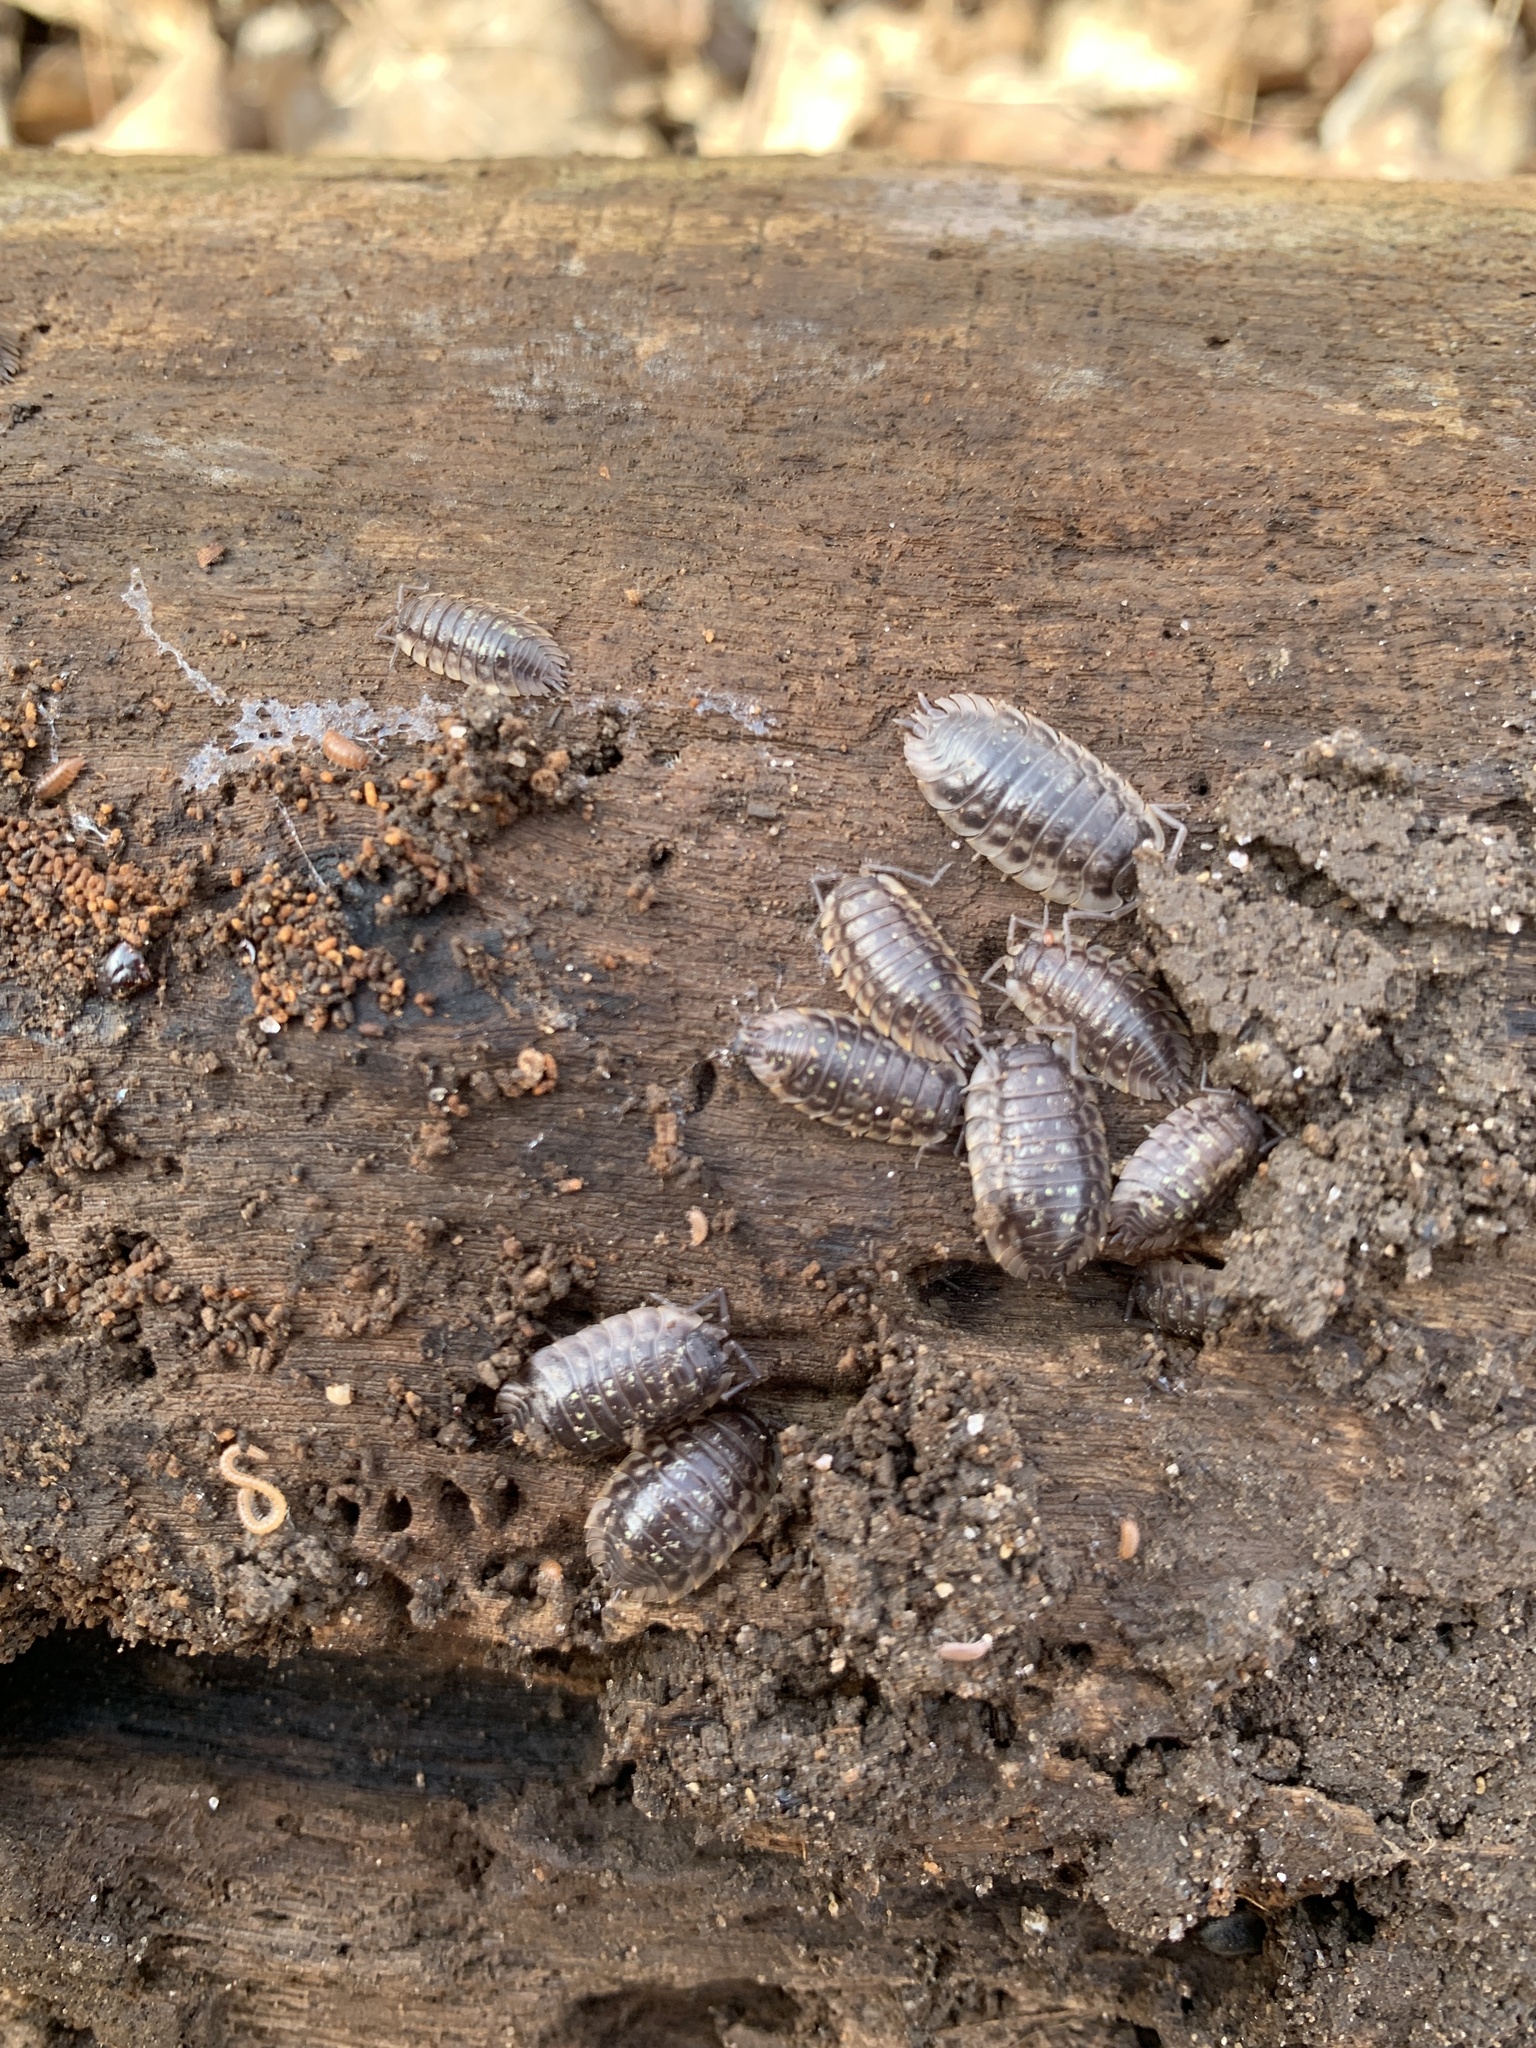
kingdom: Animalia
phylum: Arthropoda
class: Malacostraca
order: Isopoda
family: Oniscidae
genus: Oniscus
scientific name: Oniscus asellus
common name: Common shiny woodlouse
